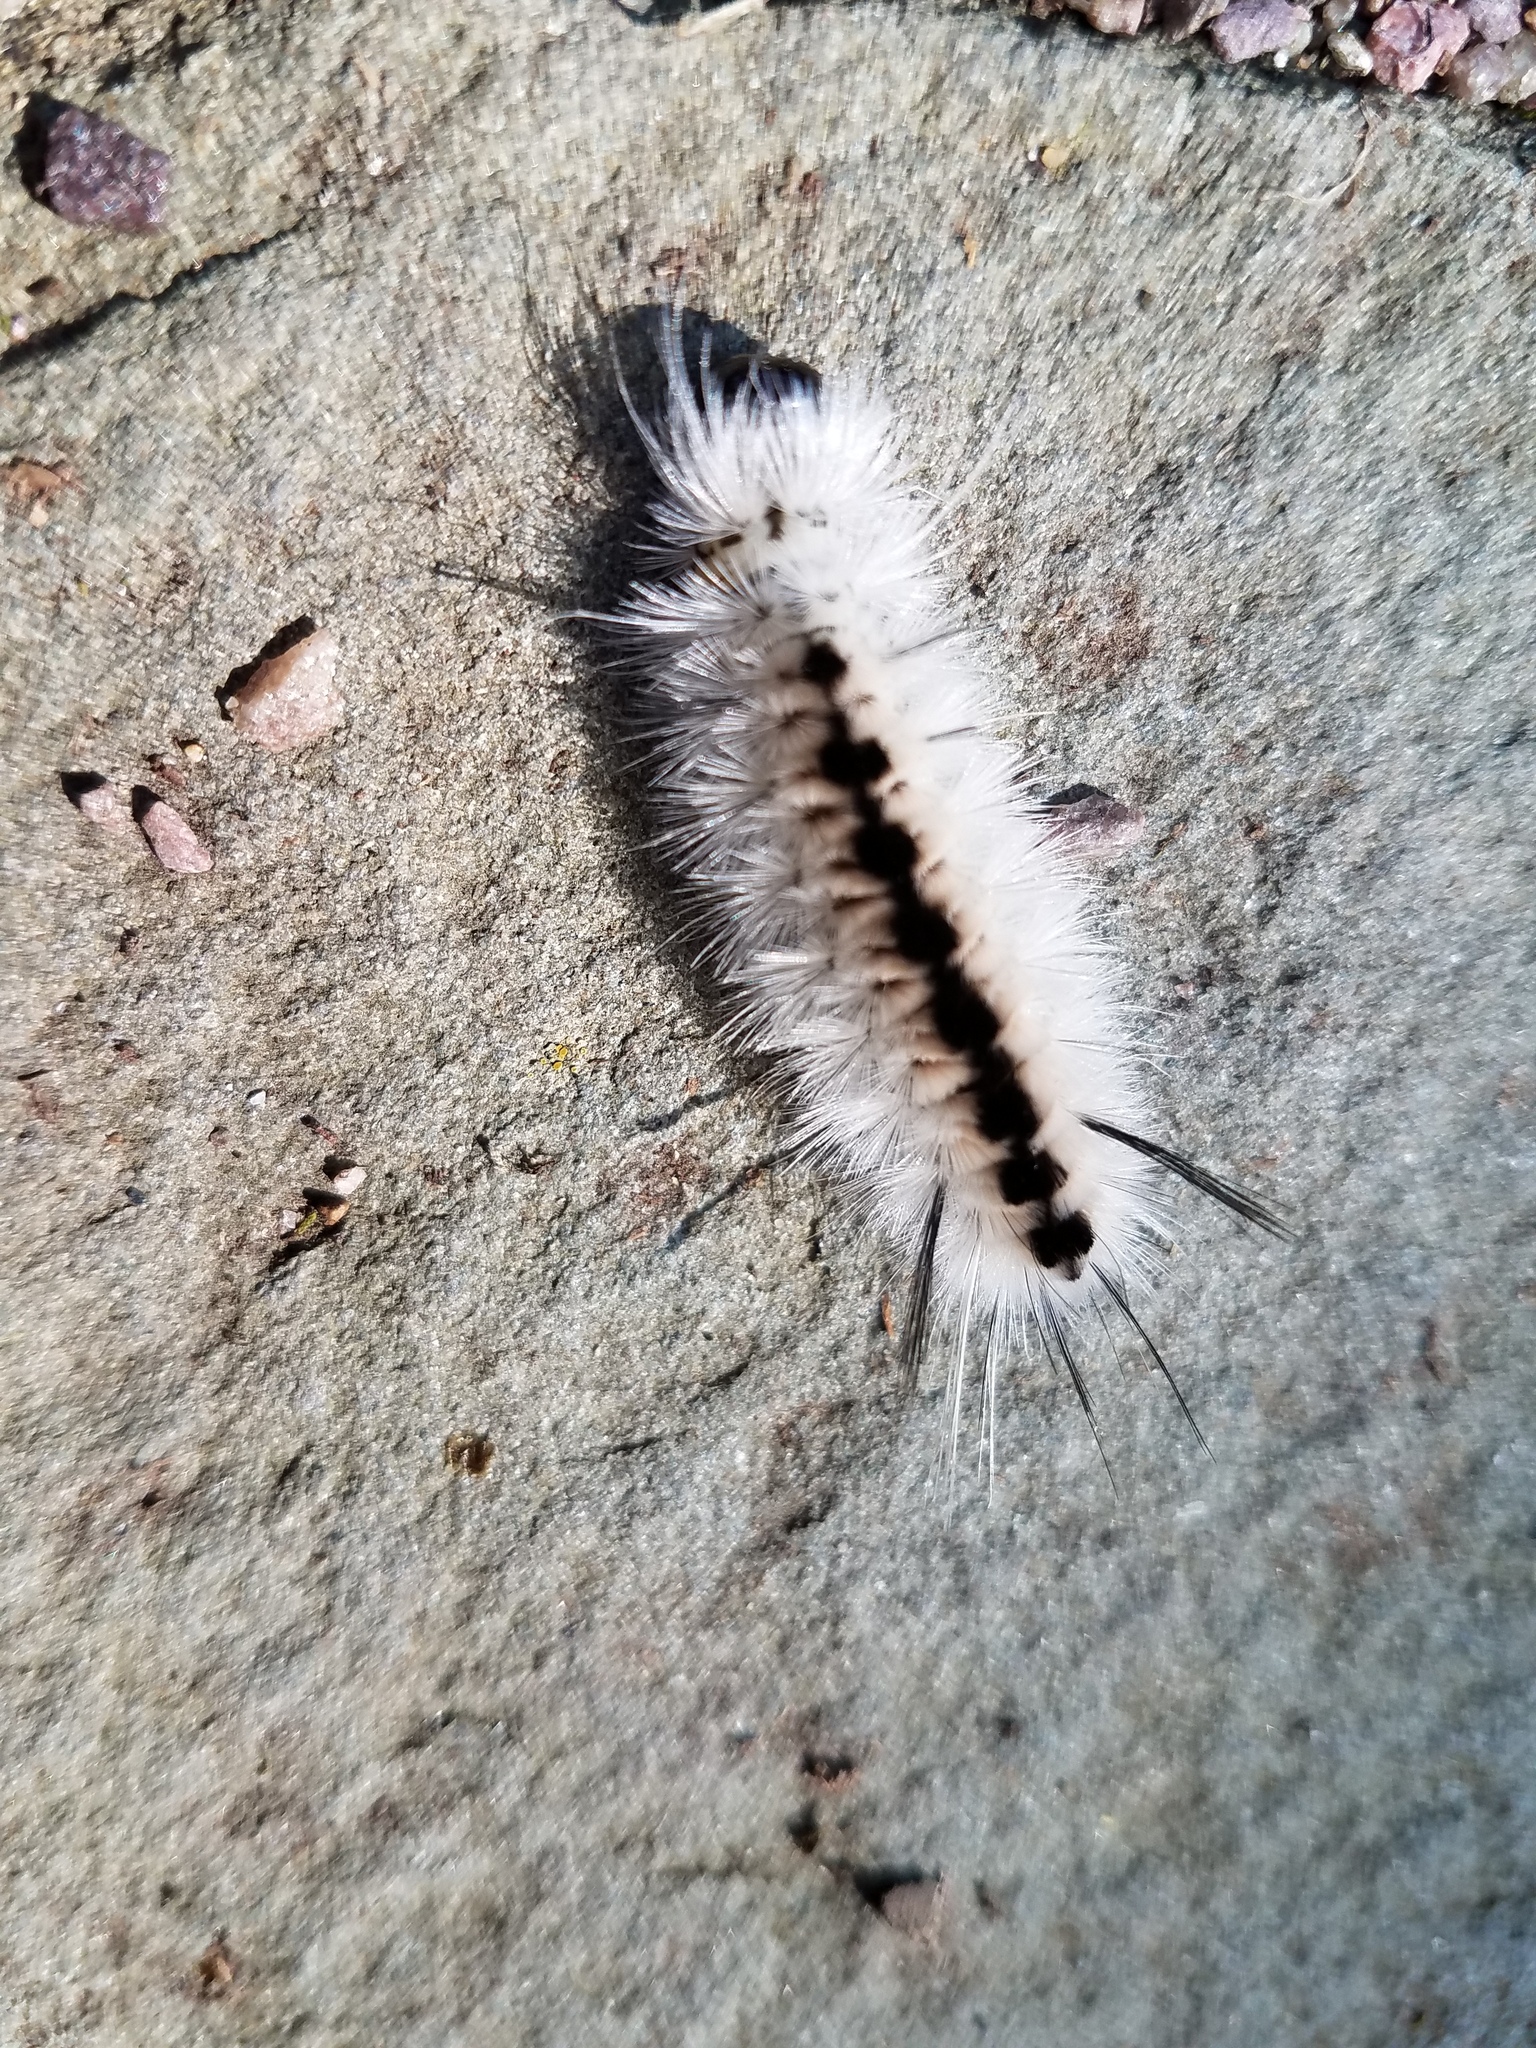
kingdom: Animalia
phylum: Arthropoda
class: Insecta
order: Lepidoptera
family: Erebidae
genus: Lophocampa
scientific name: Lophocampa caryae
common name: Hickory tussock moth
